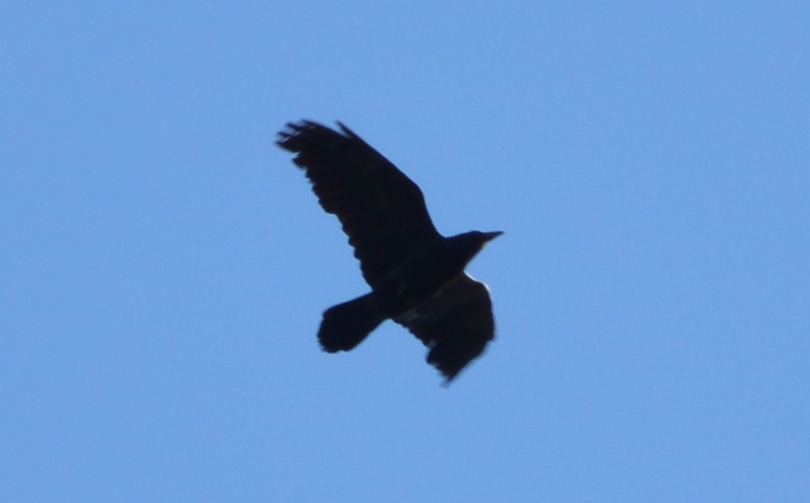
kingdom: Animalia
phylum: Chordata
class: Aves
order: Passeriformes
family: Corvidae
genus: Corvus
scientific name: Corvus corax
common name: Common raven
